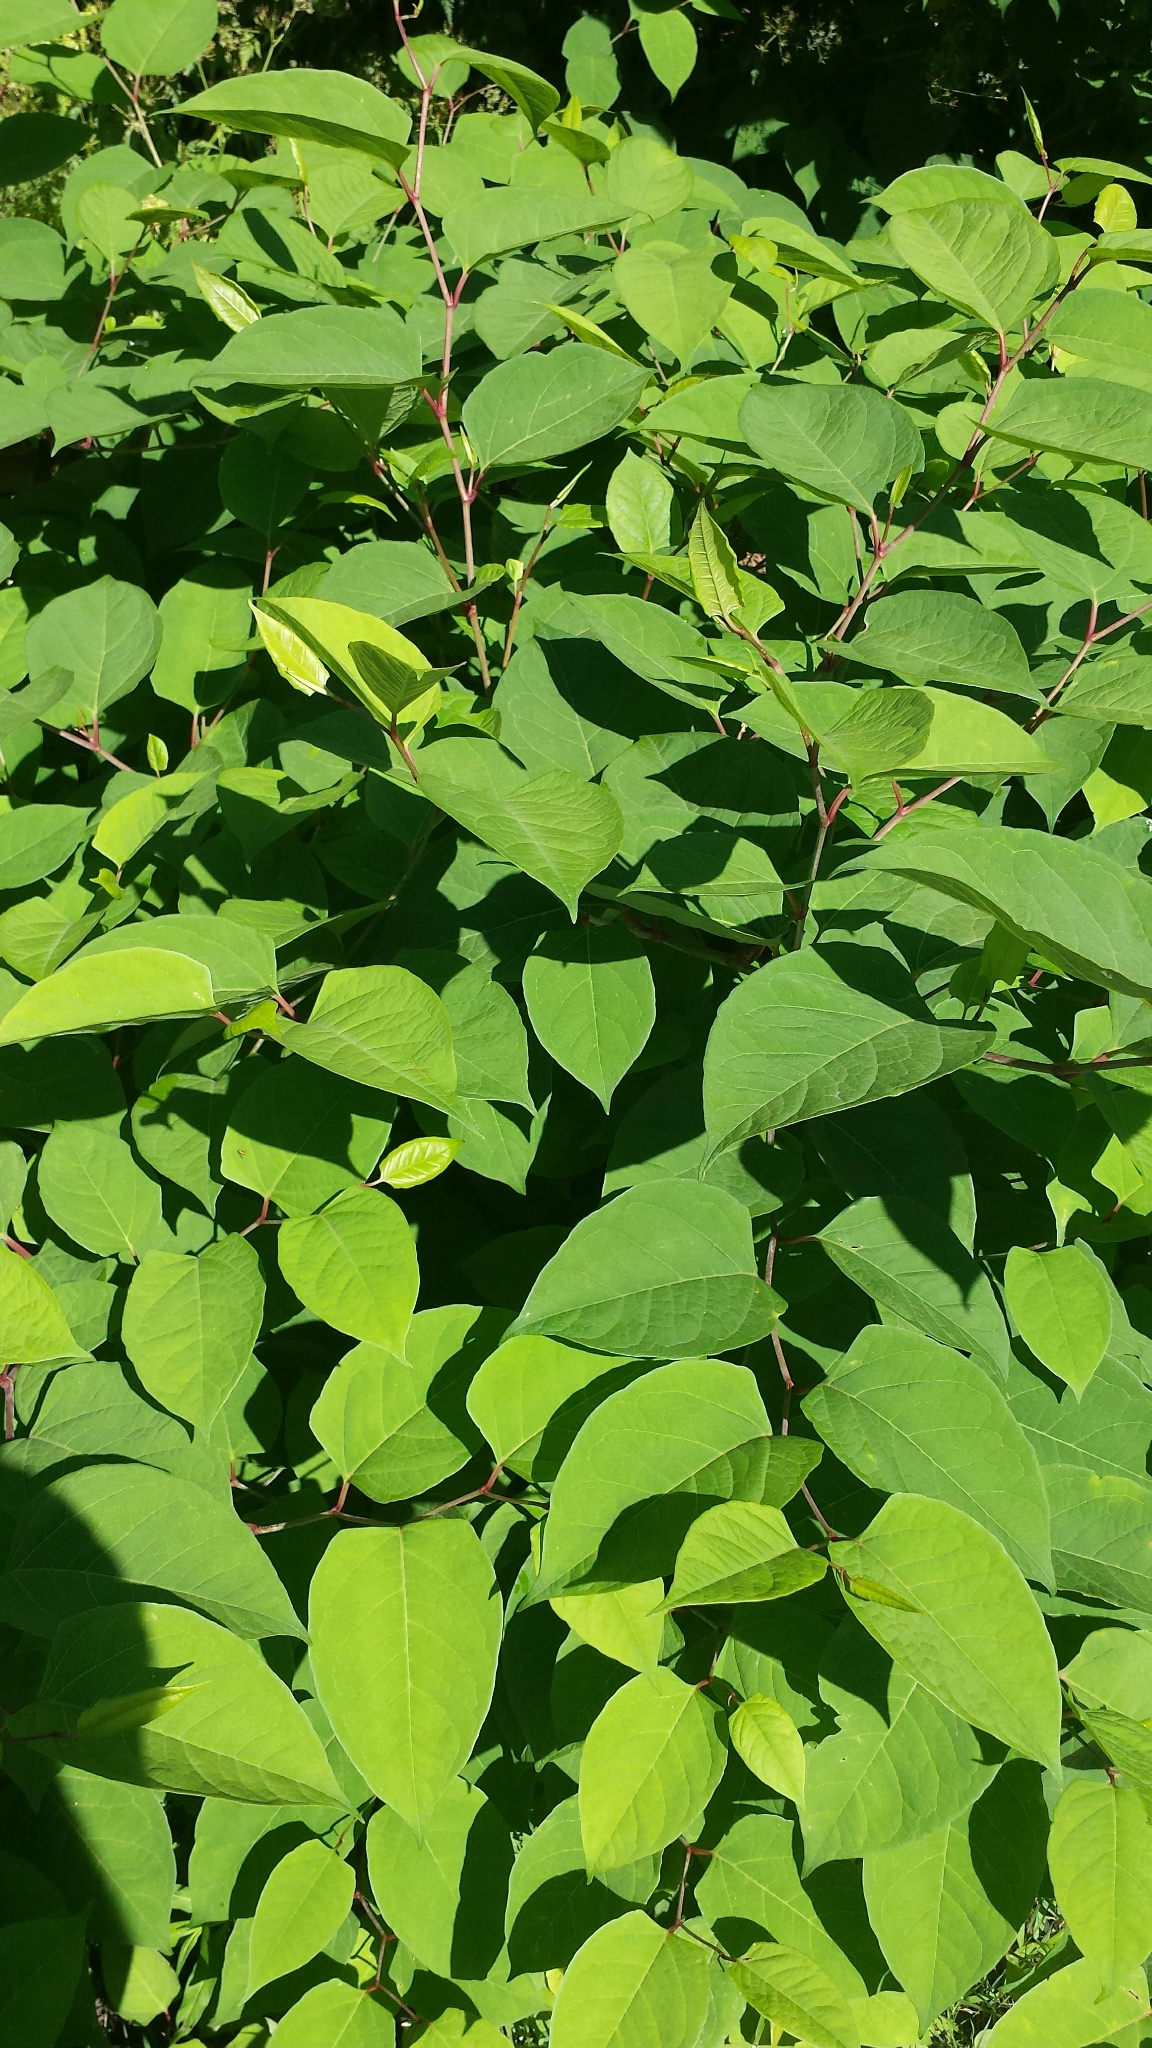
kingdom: Plantae
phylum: Tracheophyta
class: Magnoliopsida
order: Caryophyllales
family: Polygonaceae
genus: Reynoutria
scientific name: Reynoutria japonica
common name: Japanese knotweed
